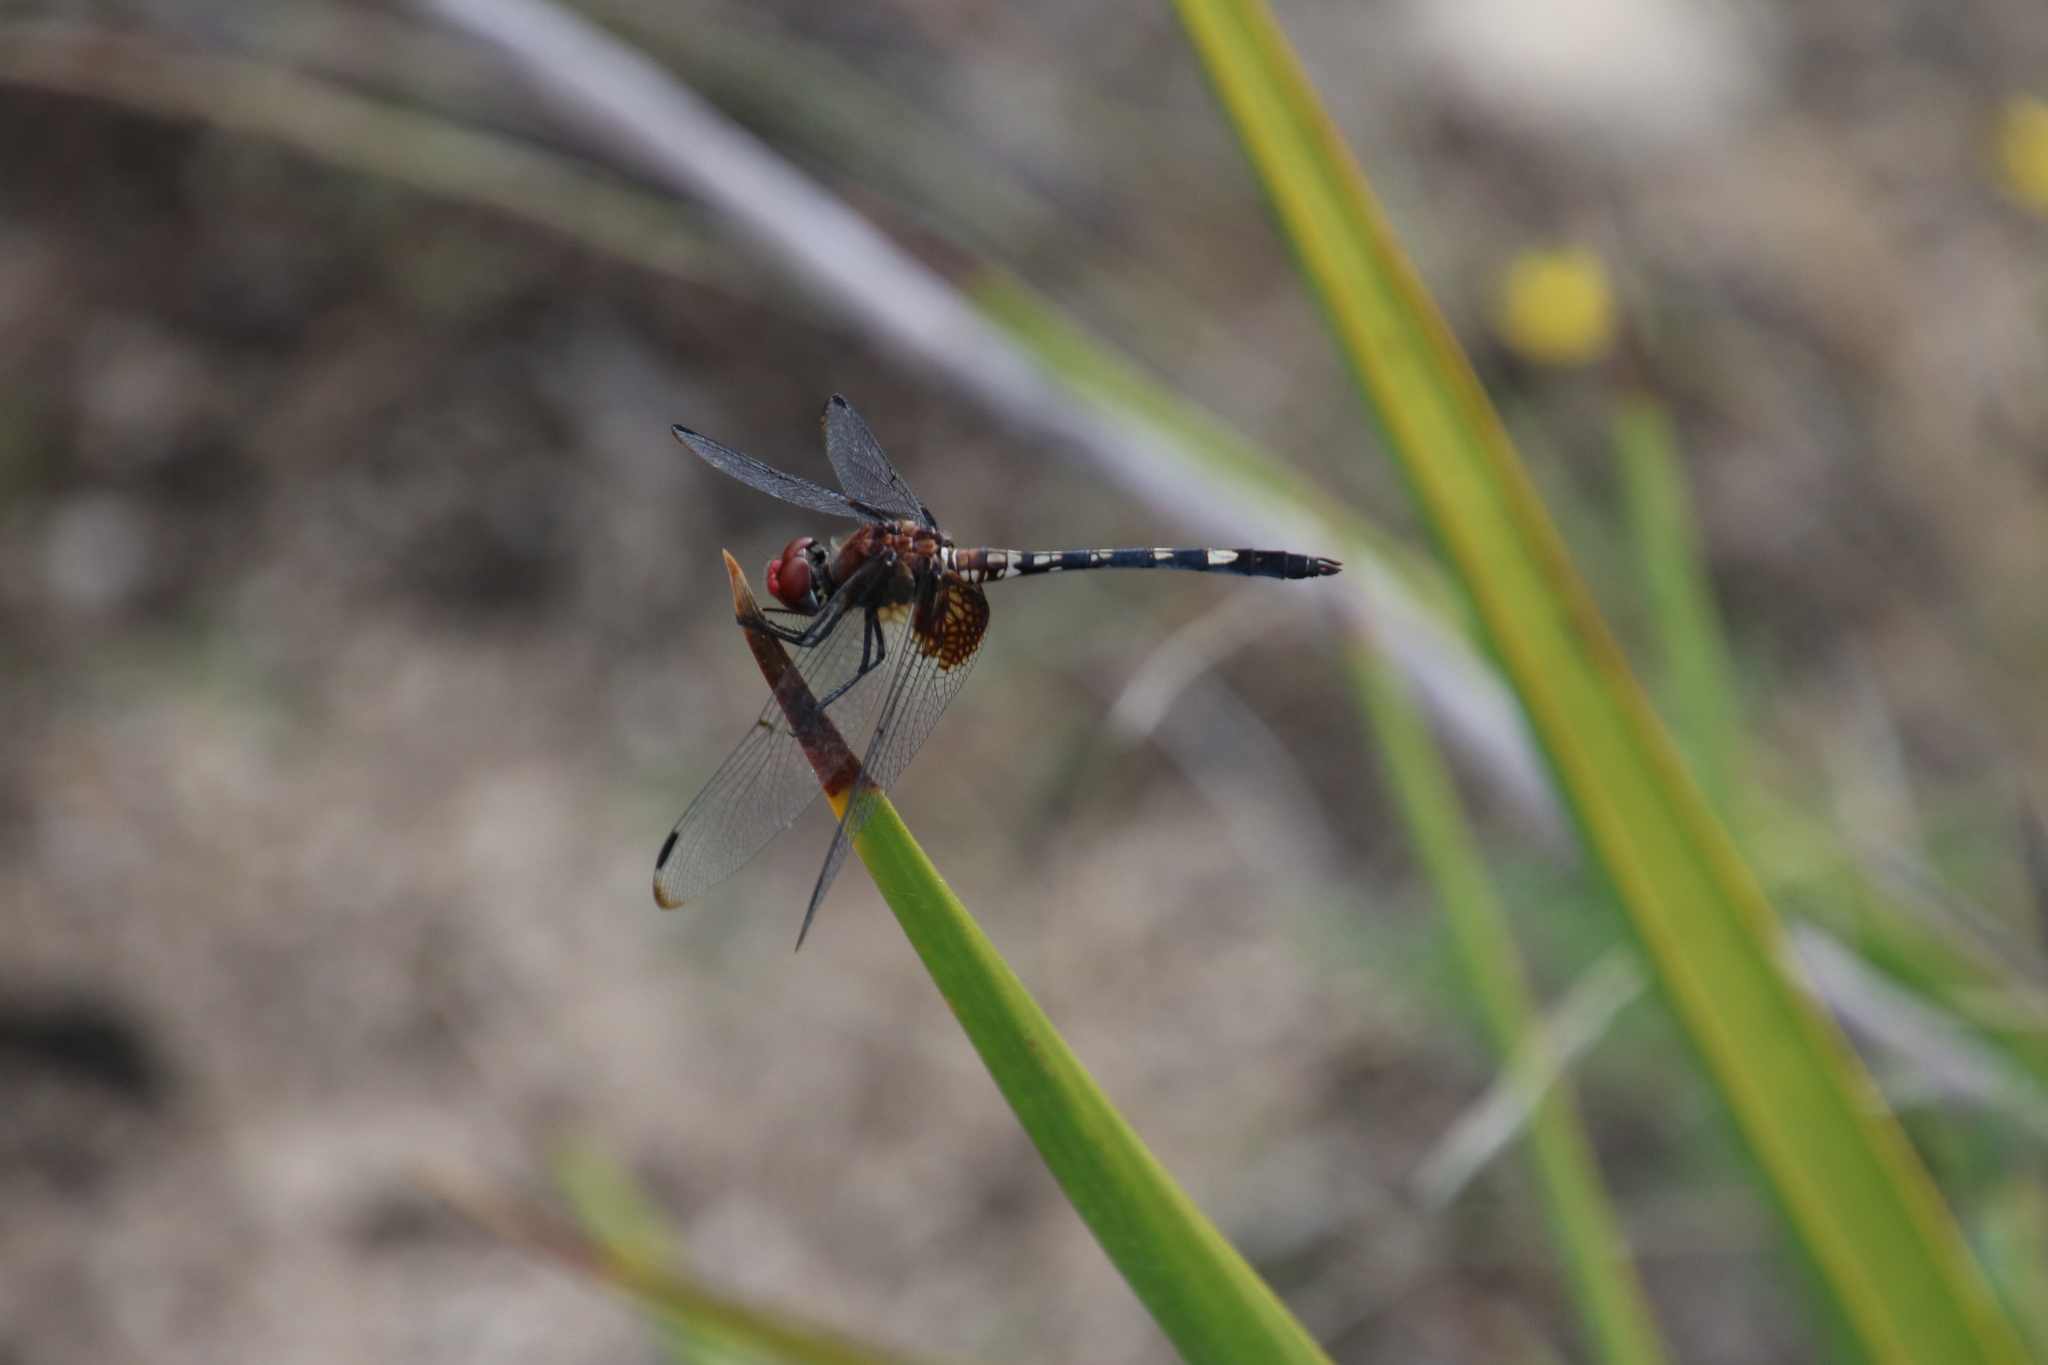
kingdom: Animalia
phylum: Arthropoda
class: Insecta
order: Odonata
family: Libellulidae
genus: Dythemis
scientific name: Dythemis fugax
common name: Checkered setwing
